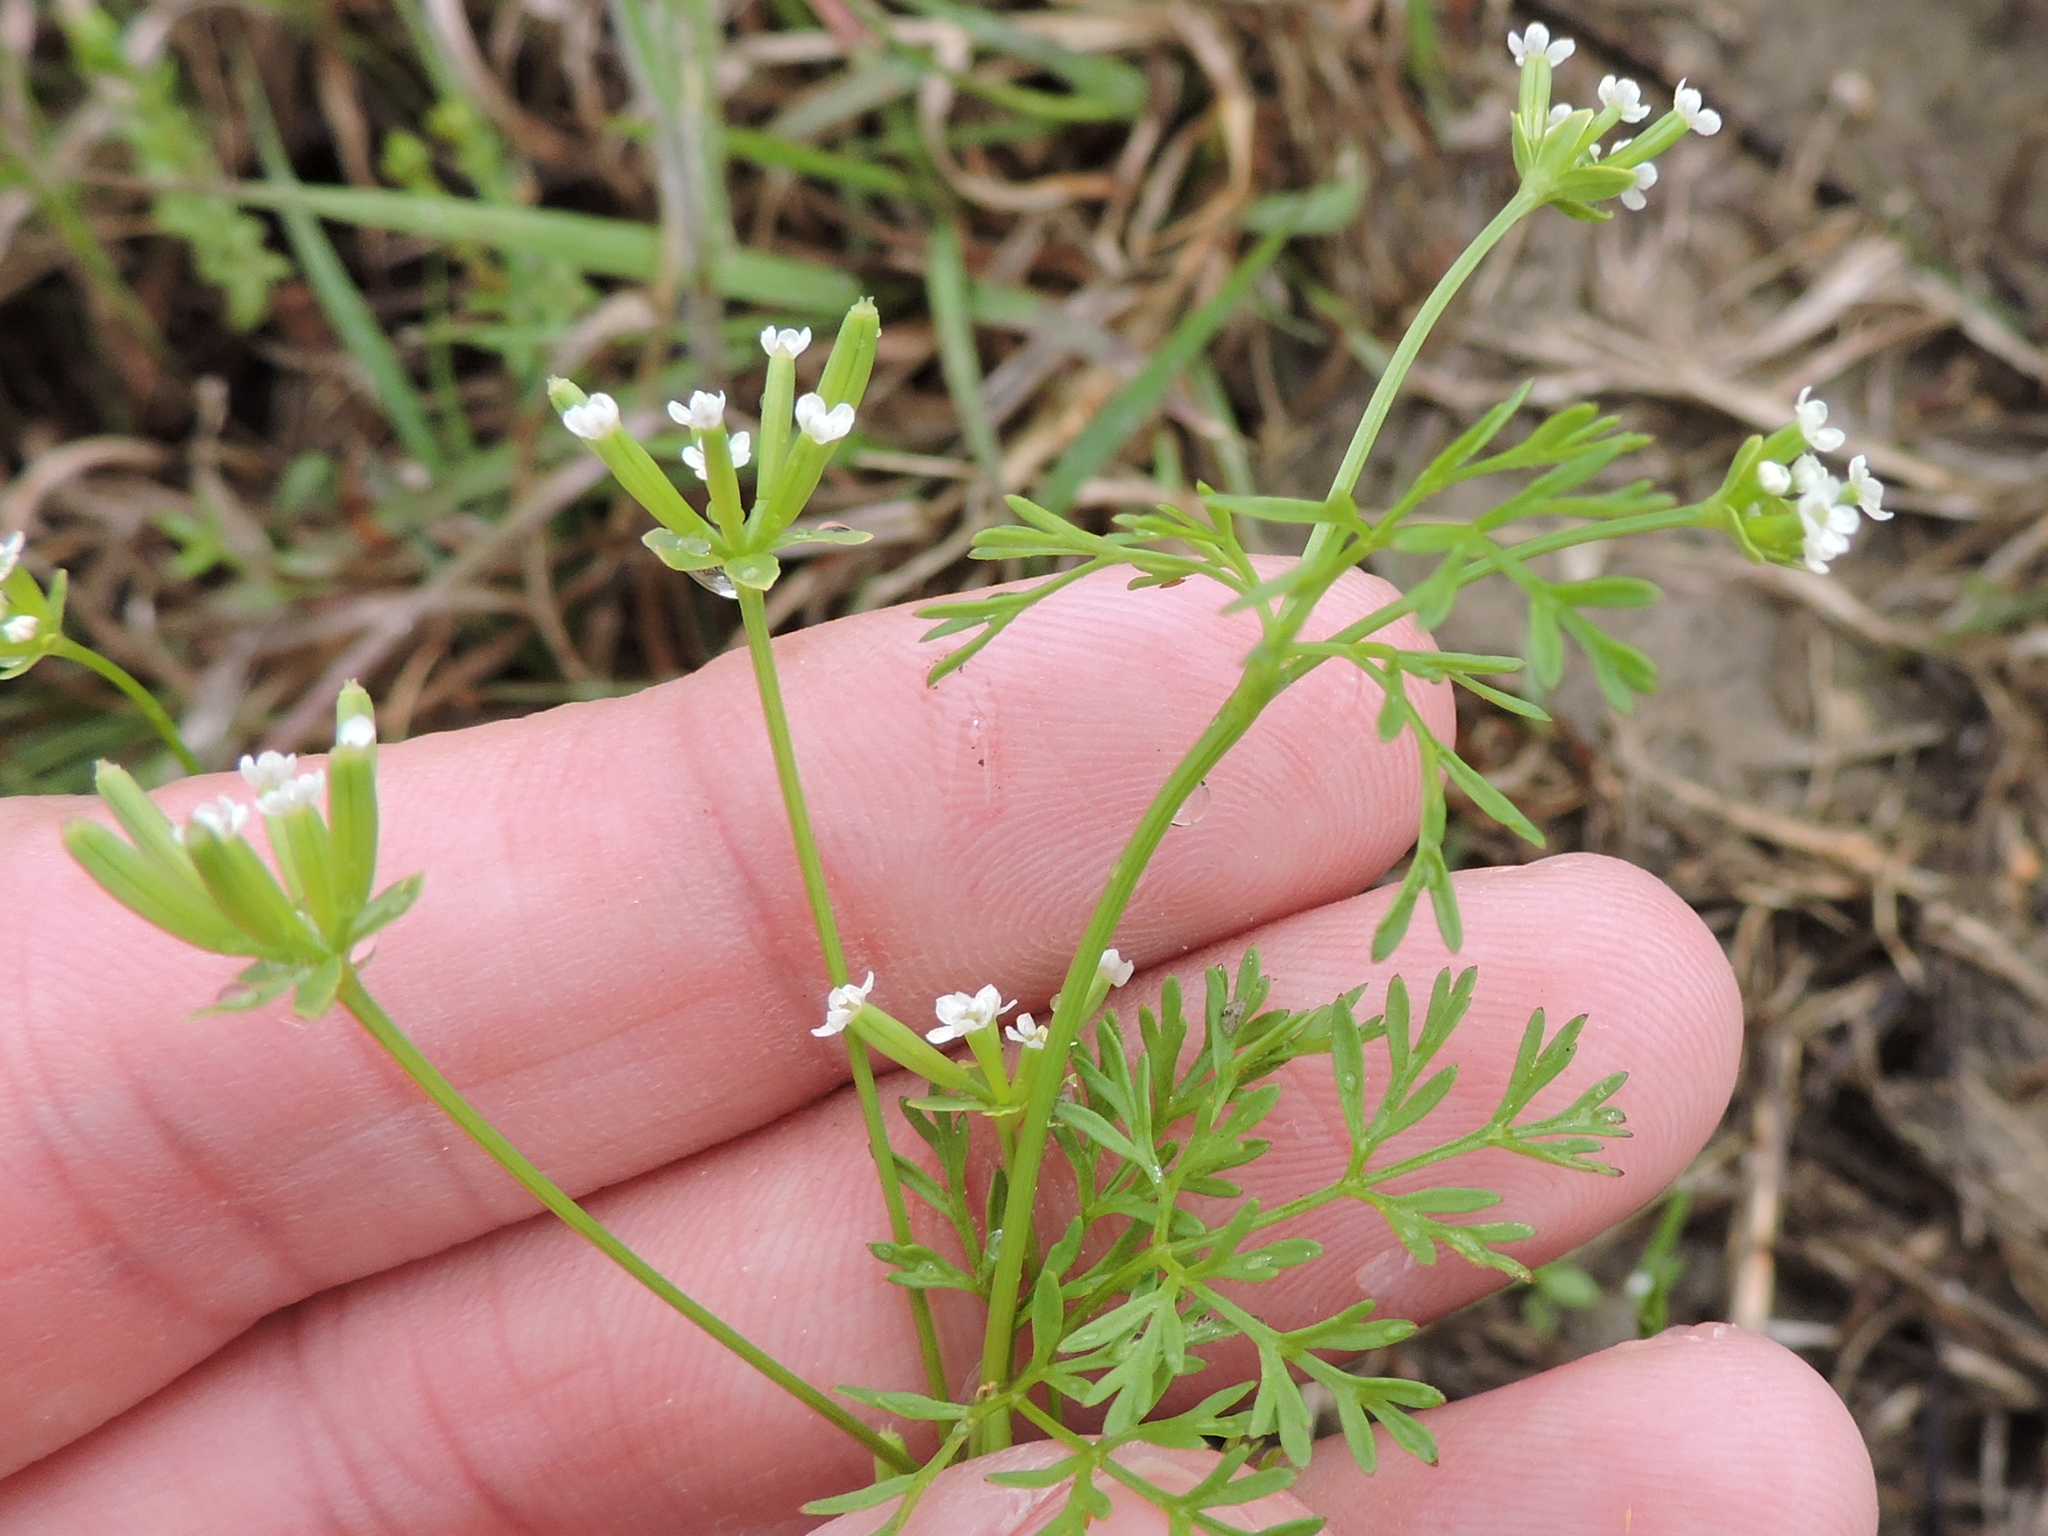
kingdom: Plantae
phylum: Tracheophyta
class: Magnoliopsida
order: Apiales
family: Apiaceae
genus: Chaerophyllum
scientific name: Chaerophyllum tainturieri
